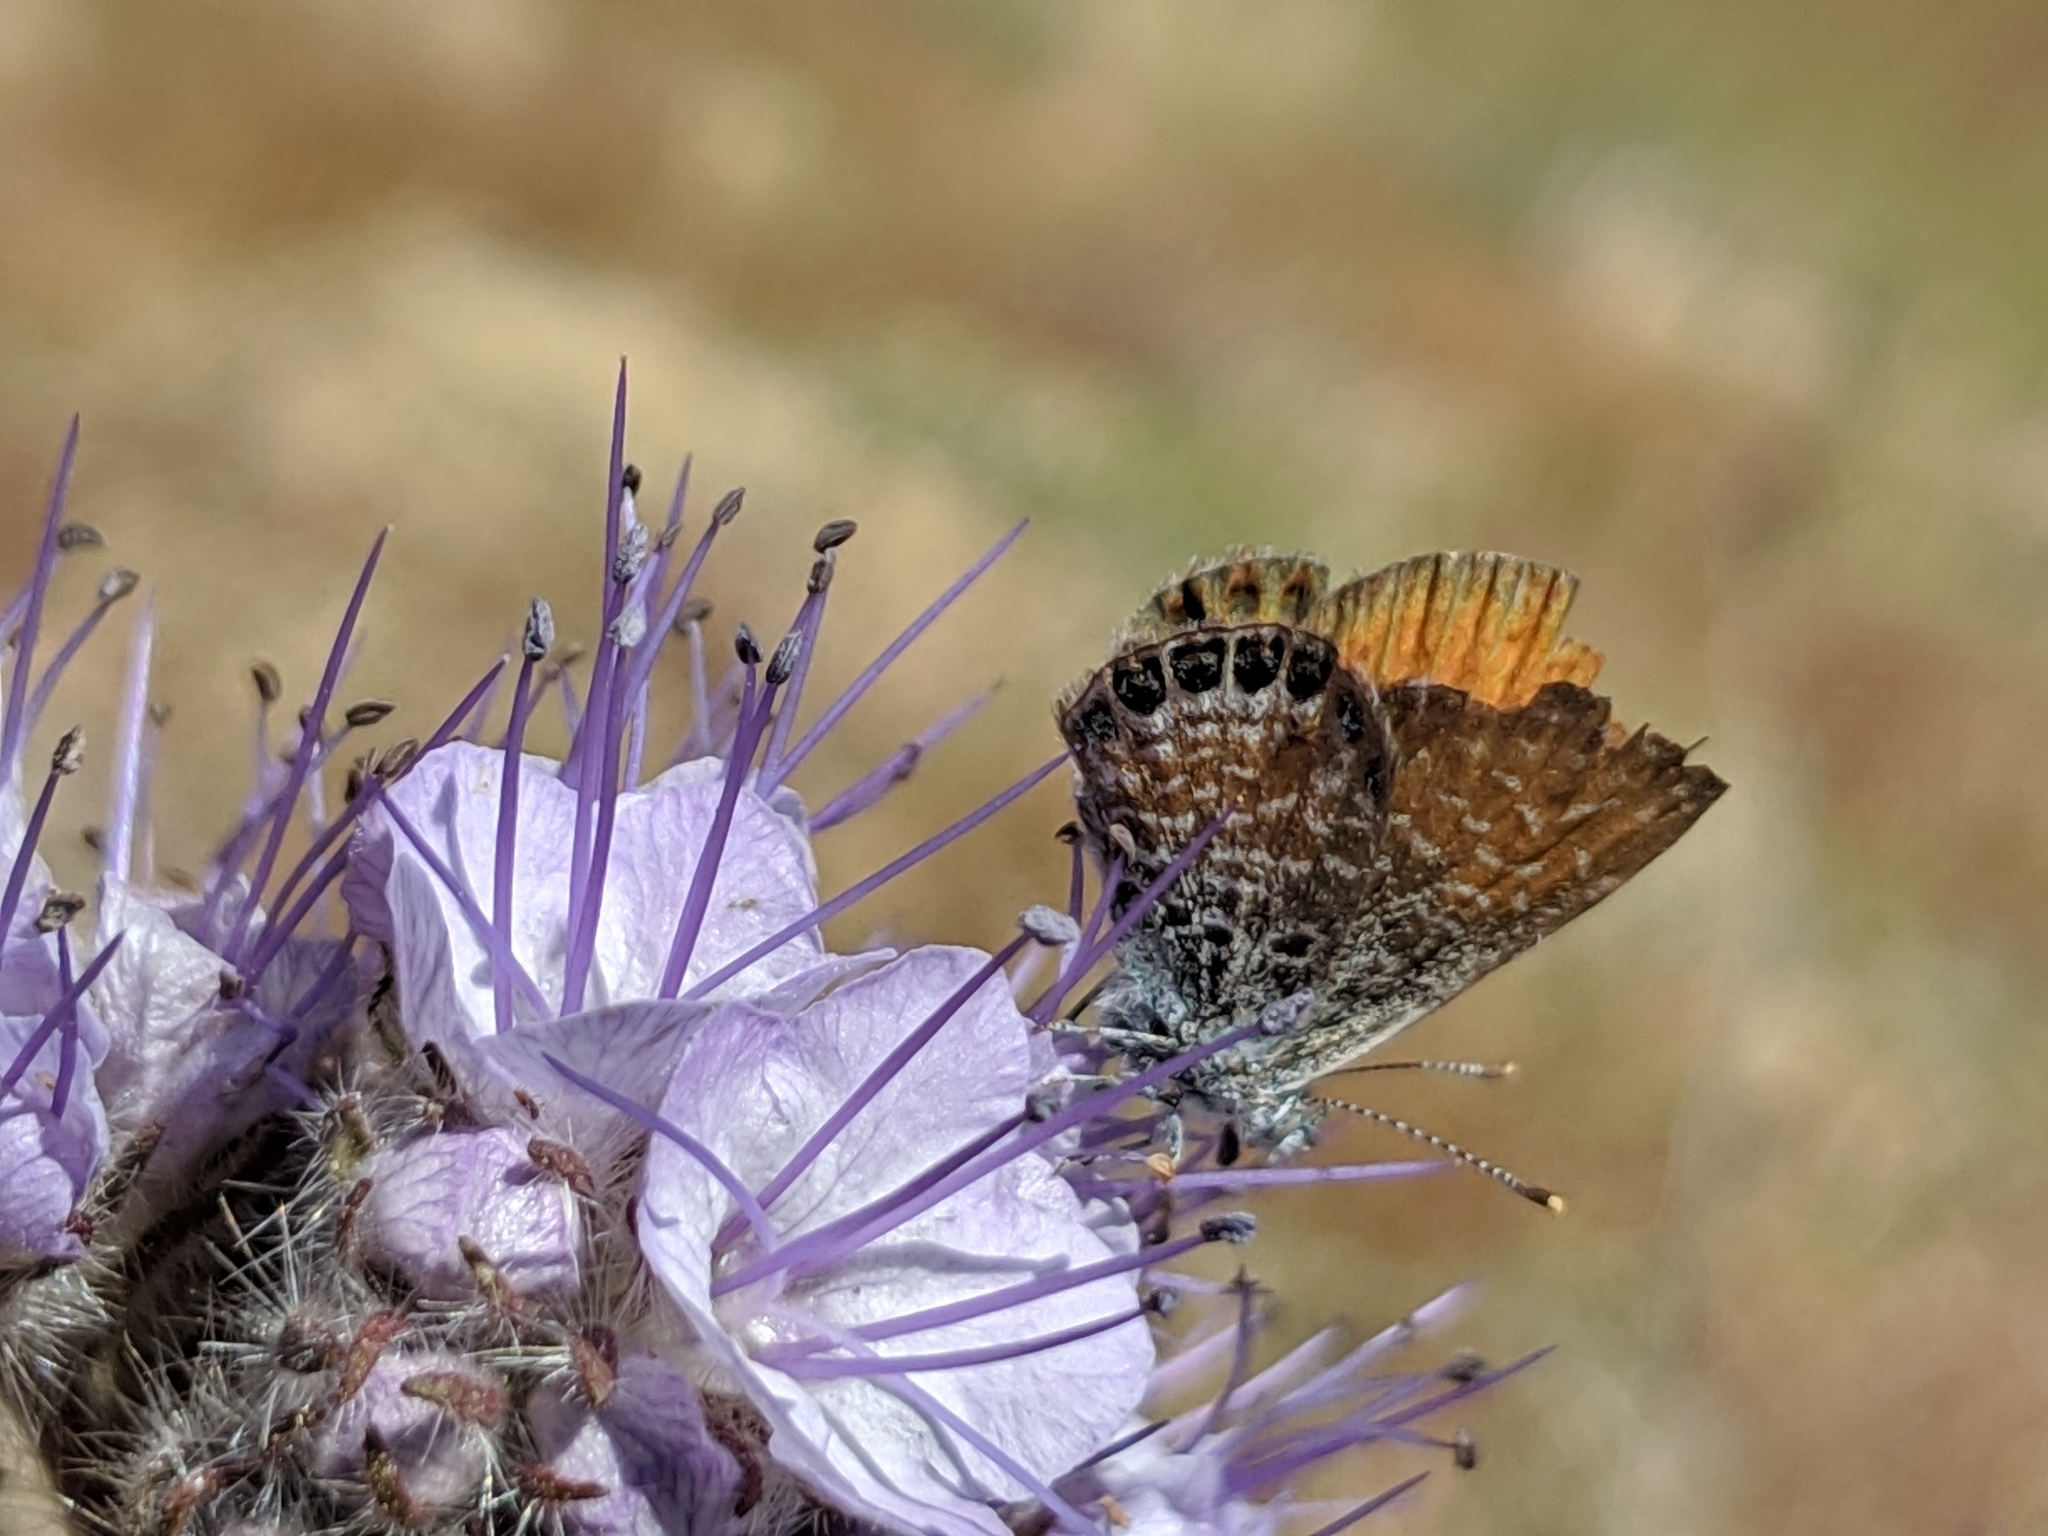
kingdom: Animalia
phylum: Arthropoda
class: Insecta
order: Lepidoptera
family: Lycaenidae
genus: Brephidium
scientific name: Brephidium exilis
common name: Pygmy blue
